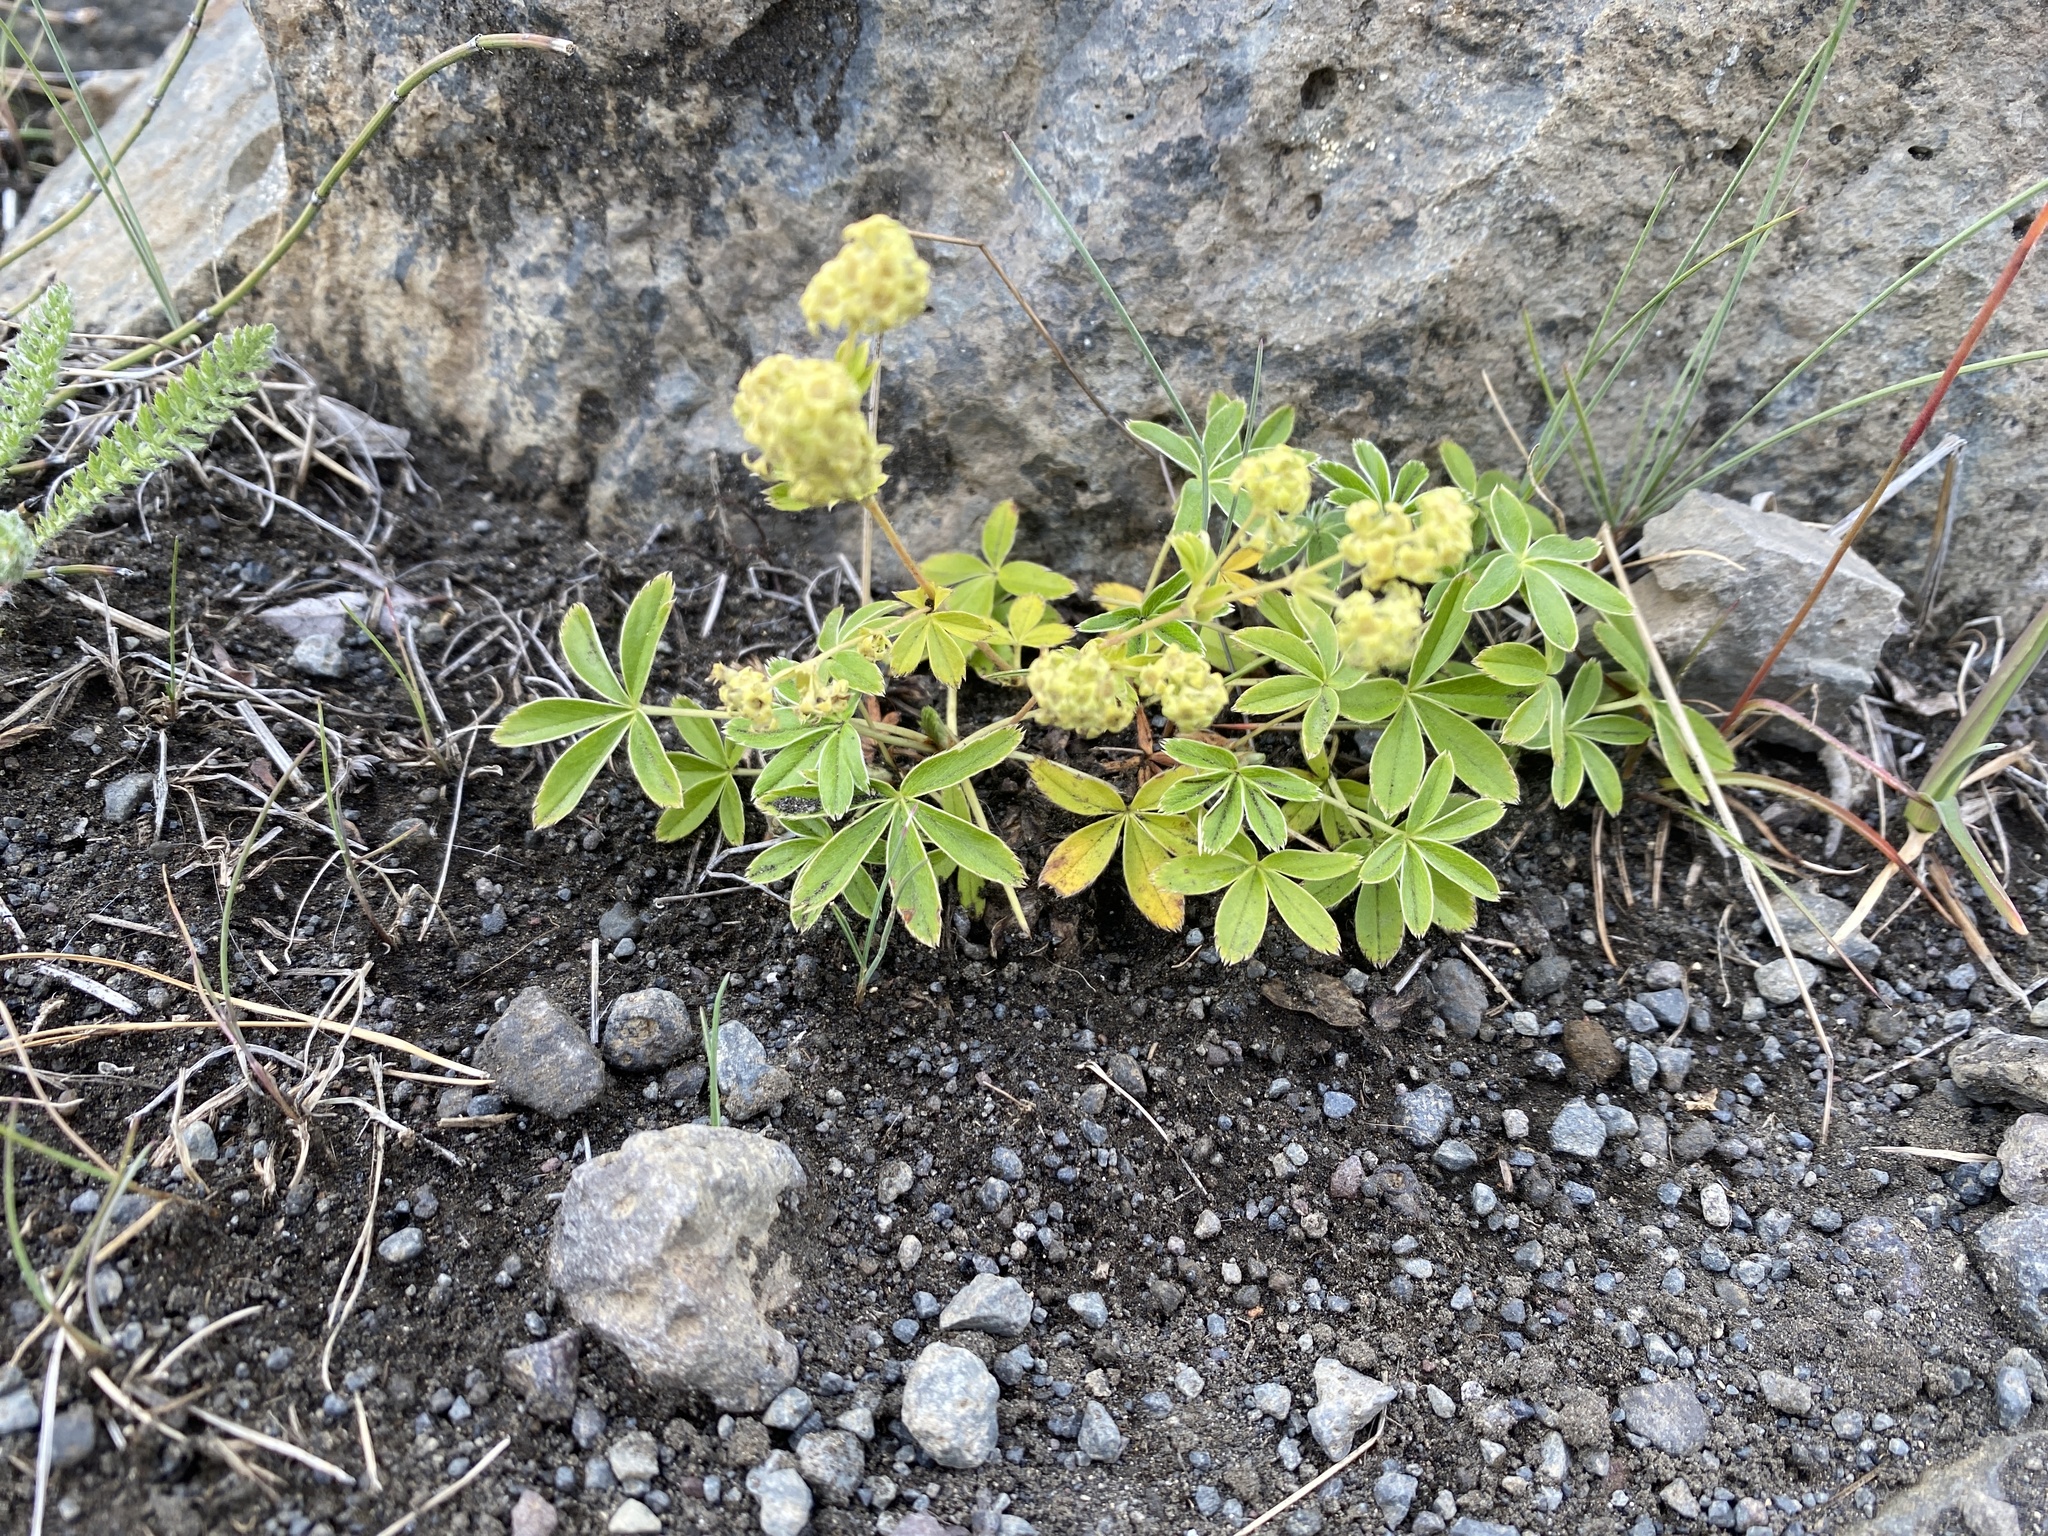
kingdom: Plantae
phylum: Tracheophyta
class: Magnoliopsida
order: Rosales
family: Rosaceae
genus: Alchemilla
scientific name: Alchemilla alpina
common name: Alpine lady's-mantle
